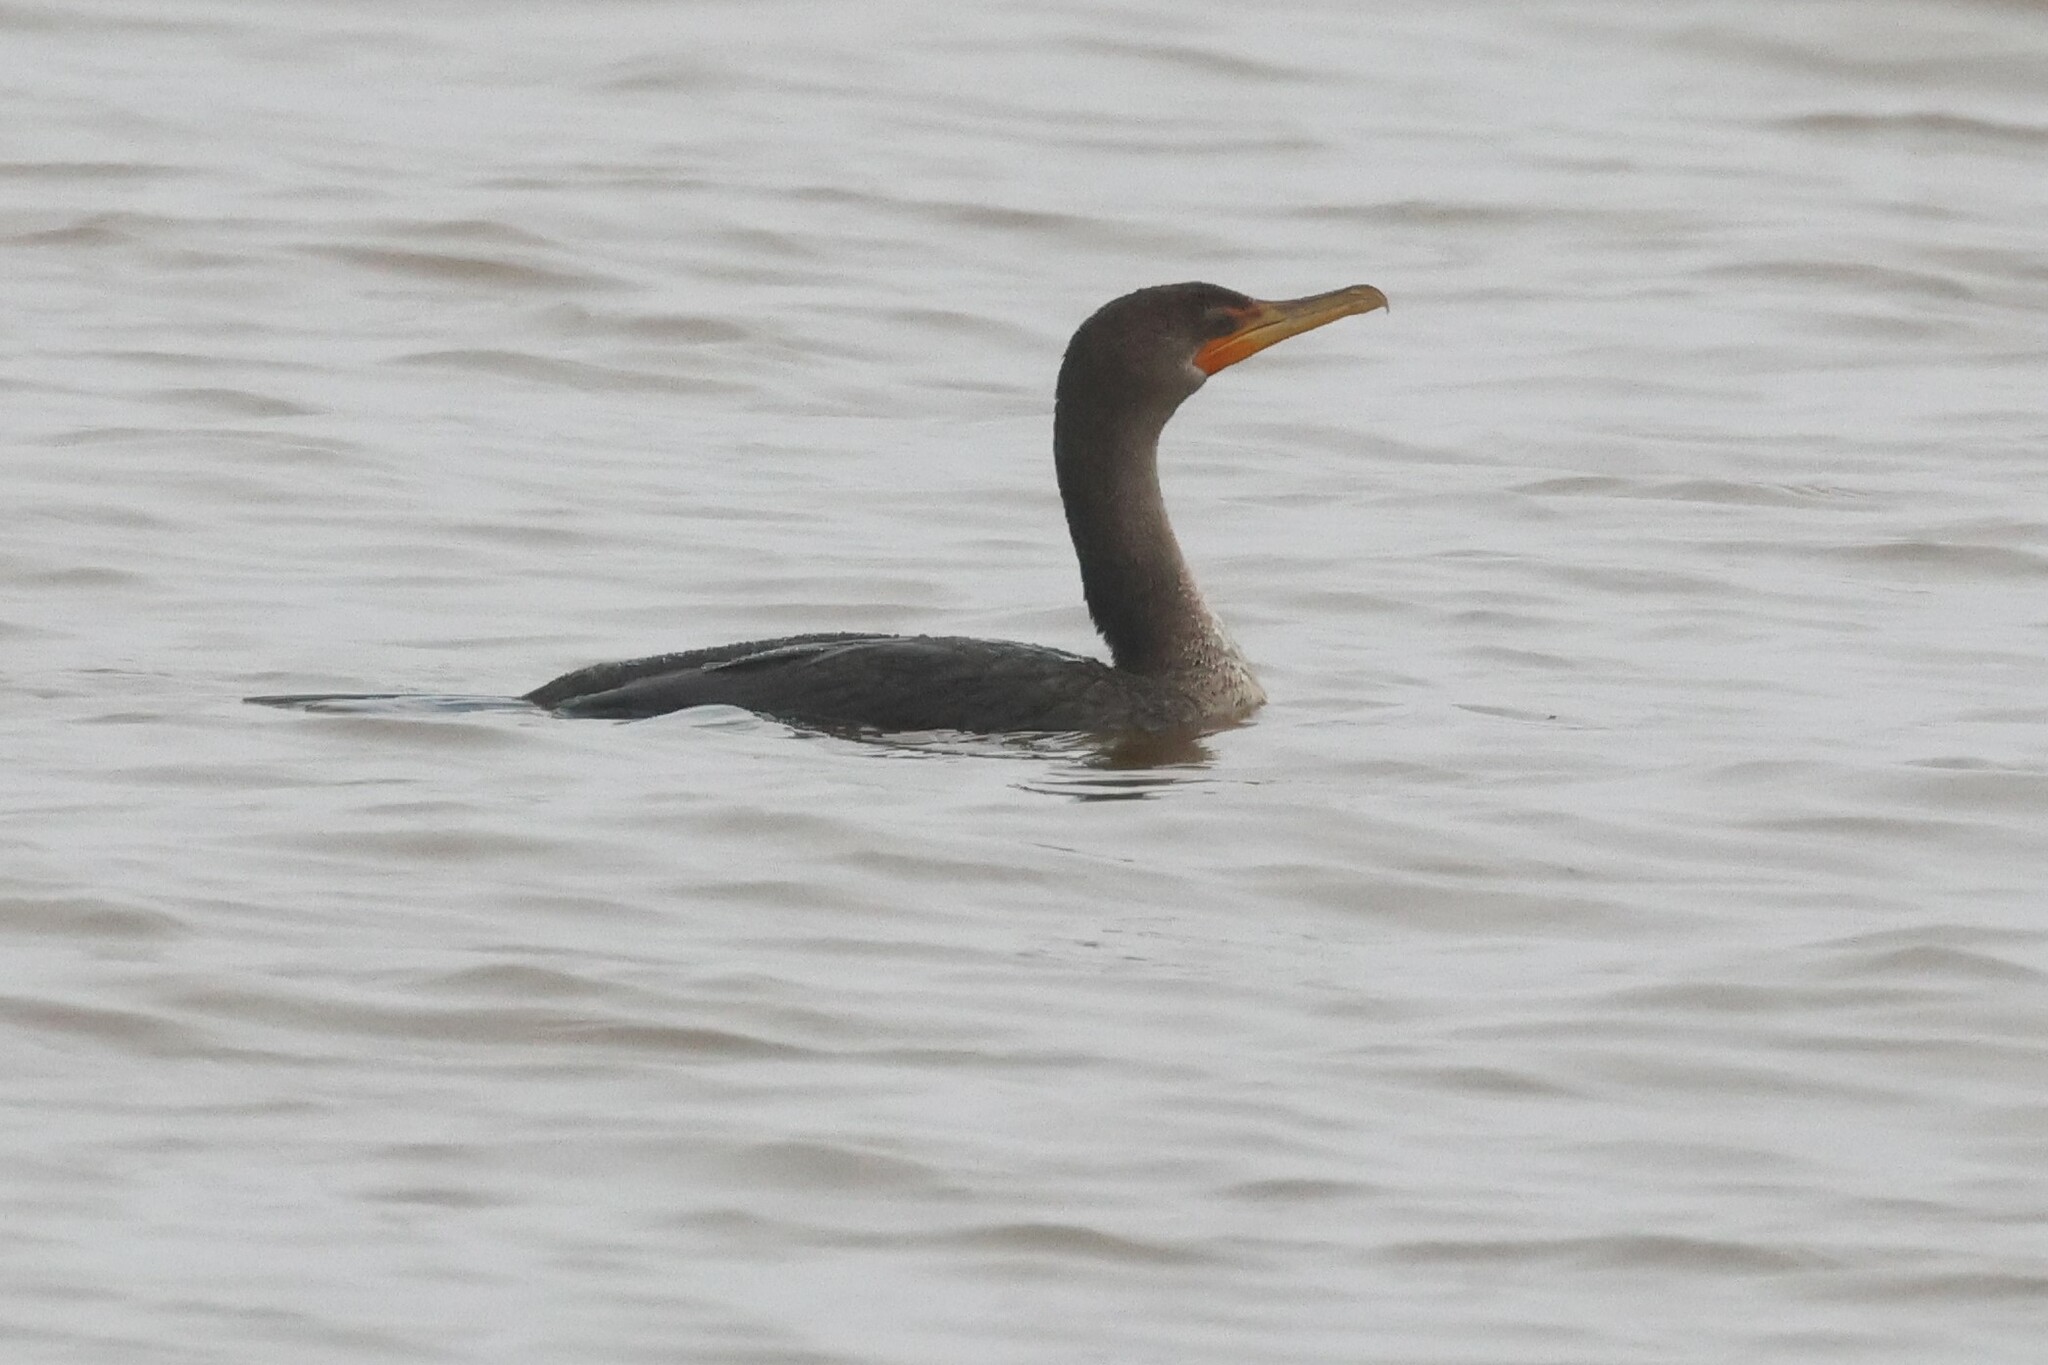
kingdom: Animalia
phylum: Chordata
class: Aves
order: Suliformes
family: Phalacrocoracidae
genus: Phalacrocorax
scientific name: Phalacrocorax auritus
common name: Double-crested cormorant
